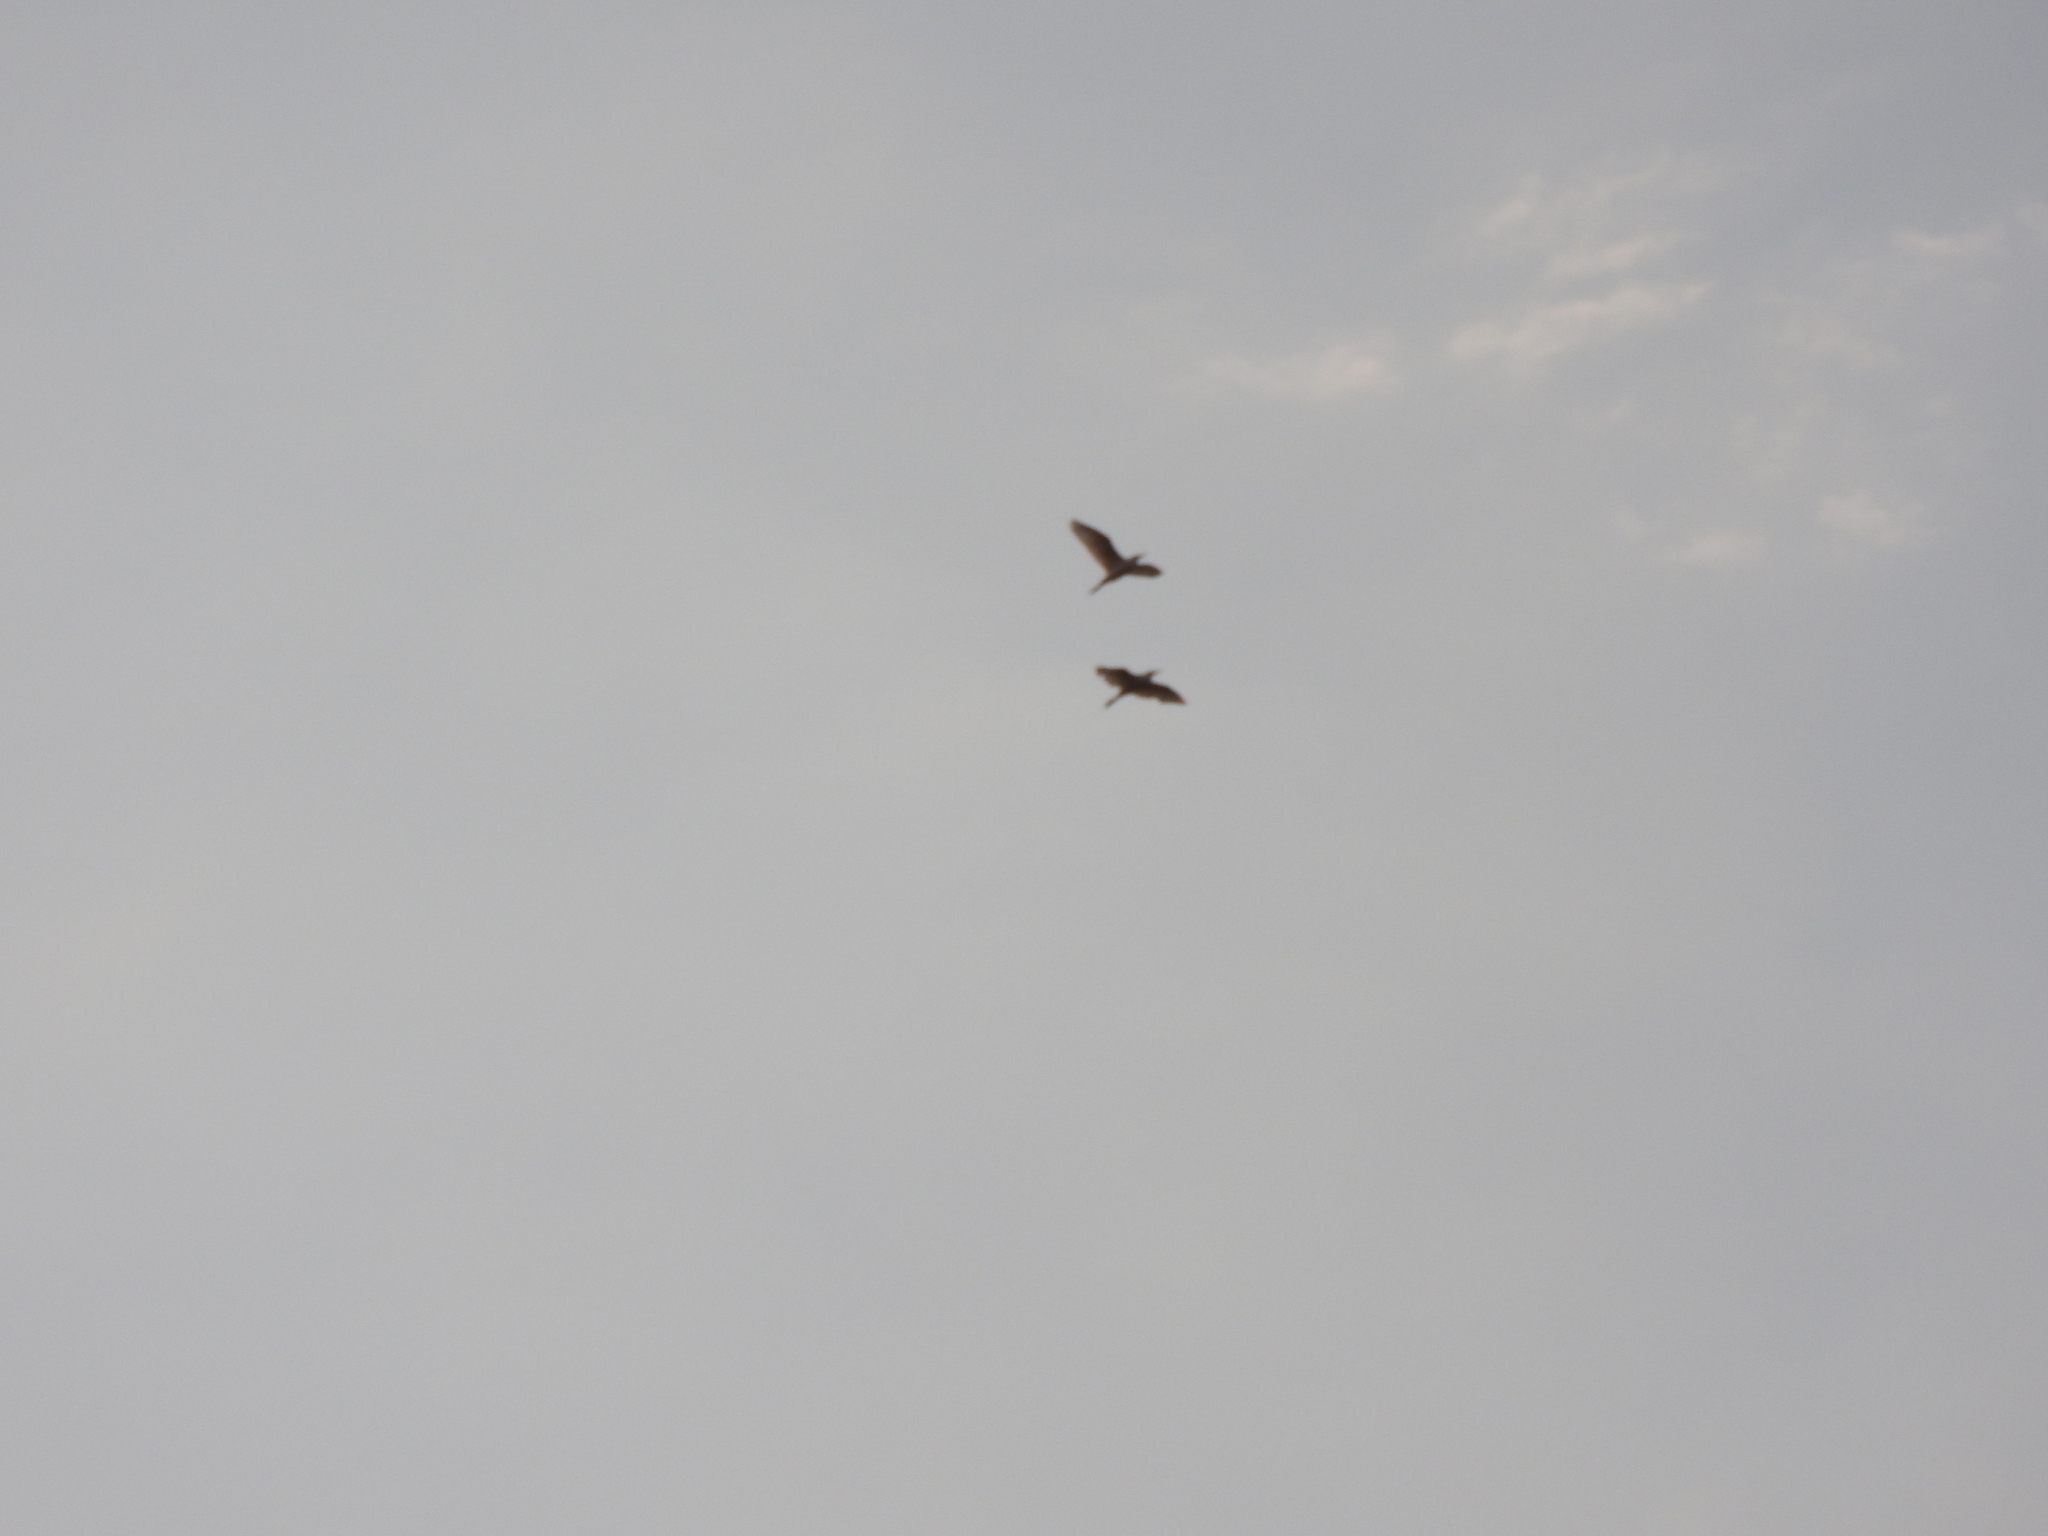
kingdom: Animalia
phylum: Chordata
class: Aves
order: Pelecaniformes
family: Ardeidae
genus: Bubulcus
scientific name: Bubulcus ibis
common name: Cattle egret
